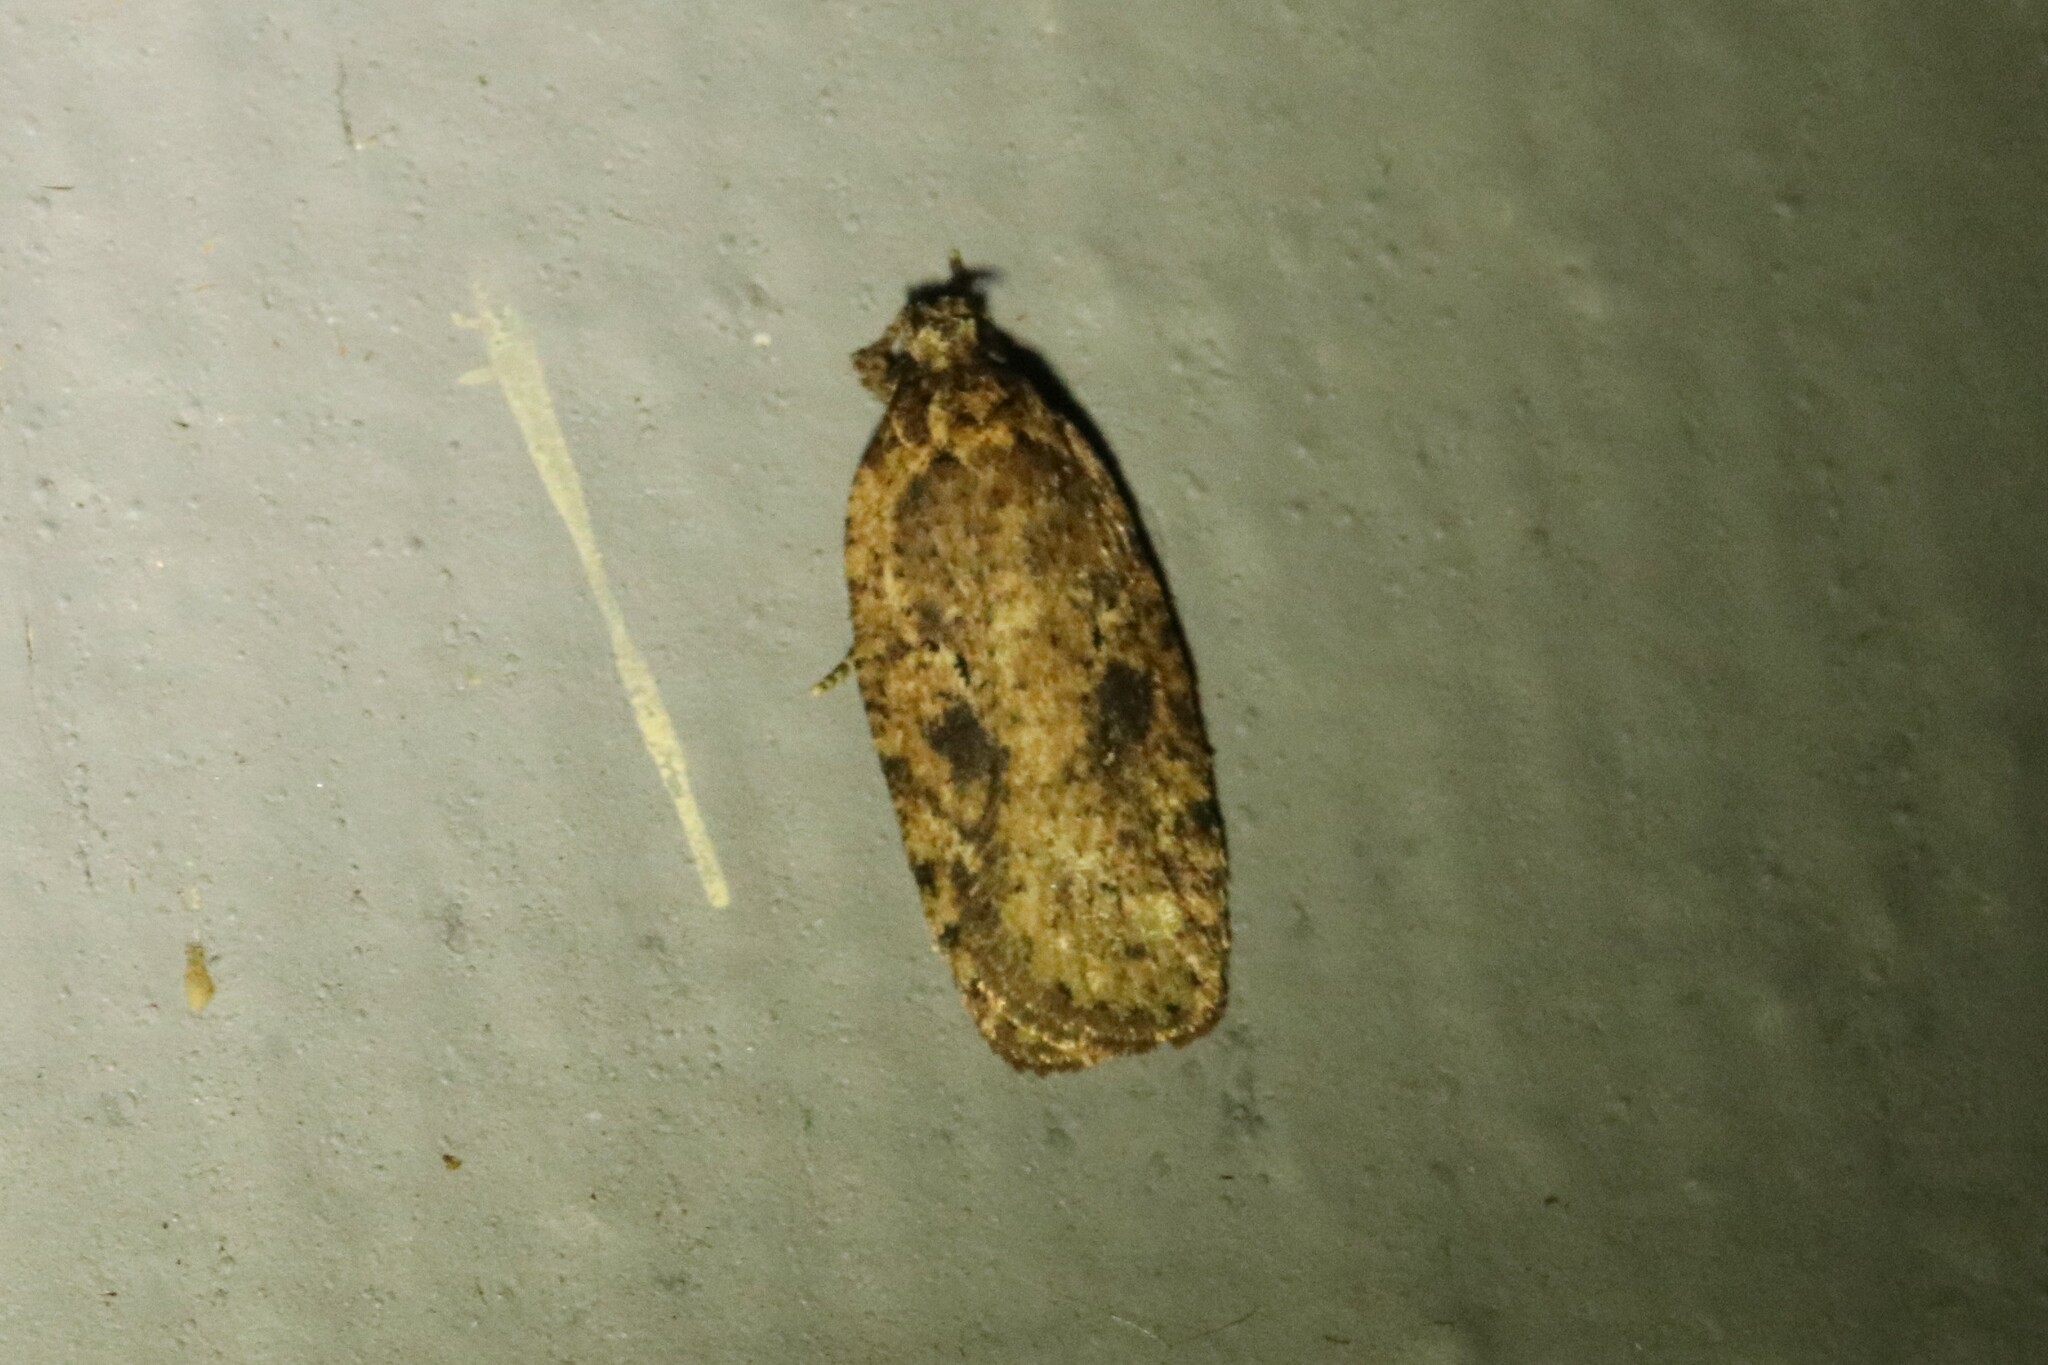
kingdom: Animalia
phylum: Arthropoda
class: Insecta
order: Lepidoptera
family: Depressariidae
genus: Agonopterix
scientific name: Agonopterix pulvipennella
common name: Goldenrod leafffolder
